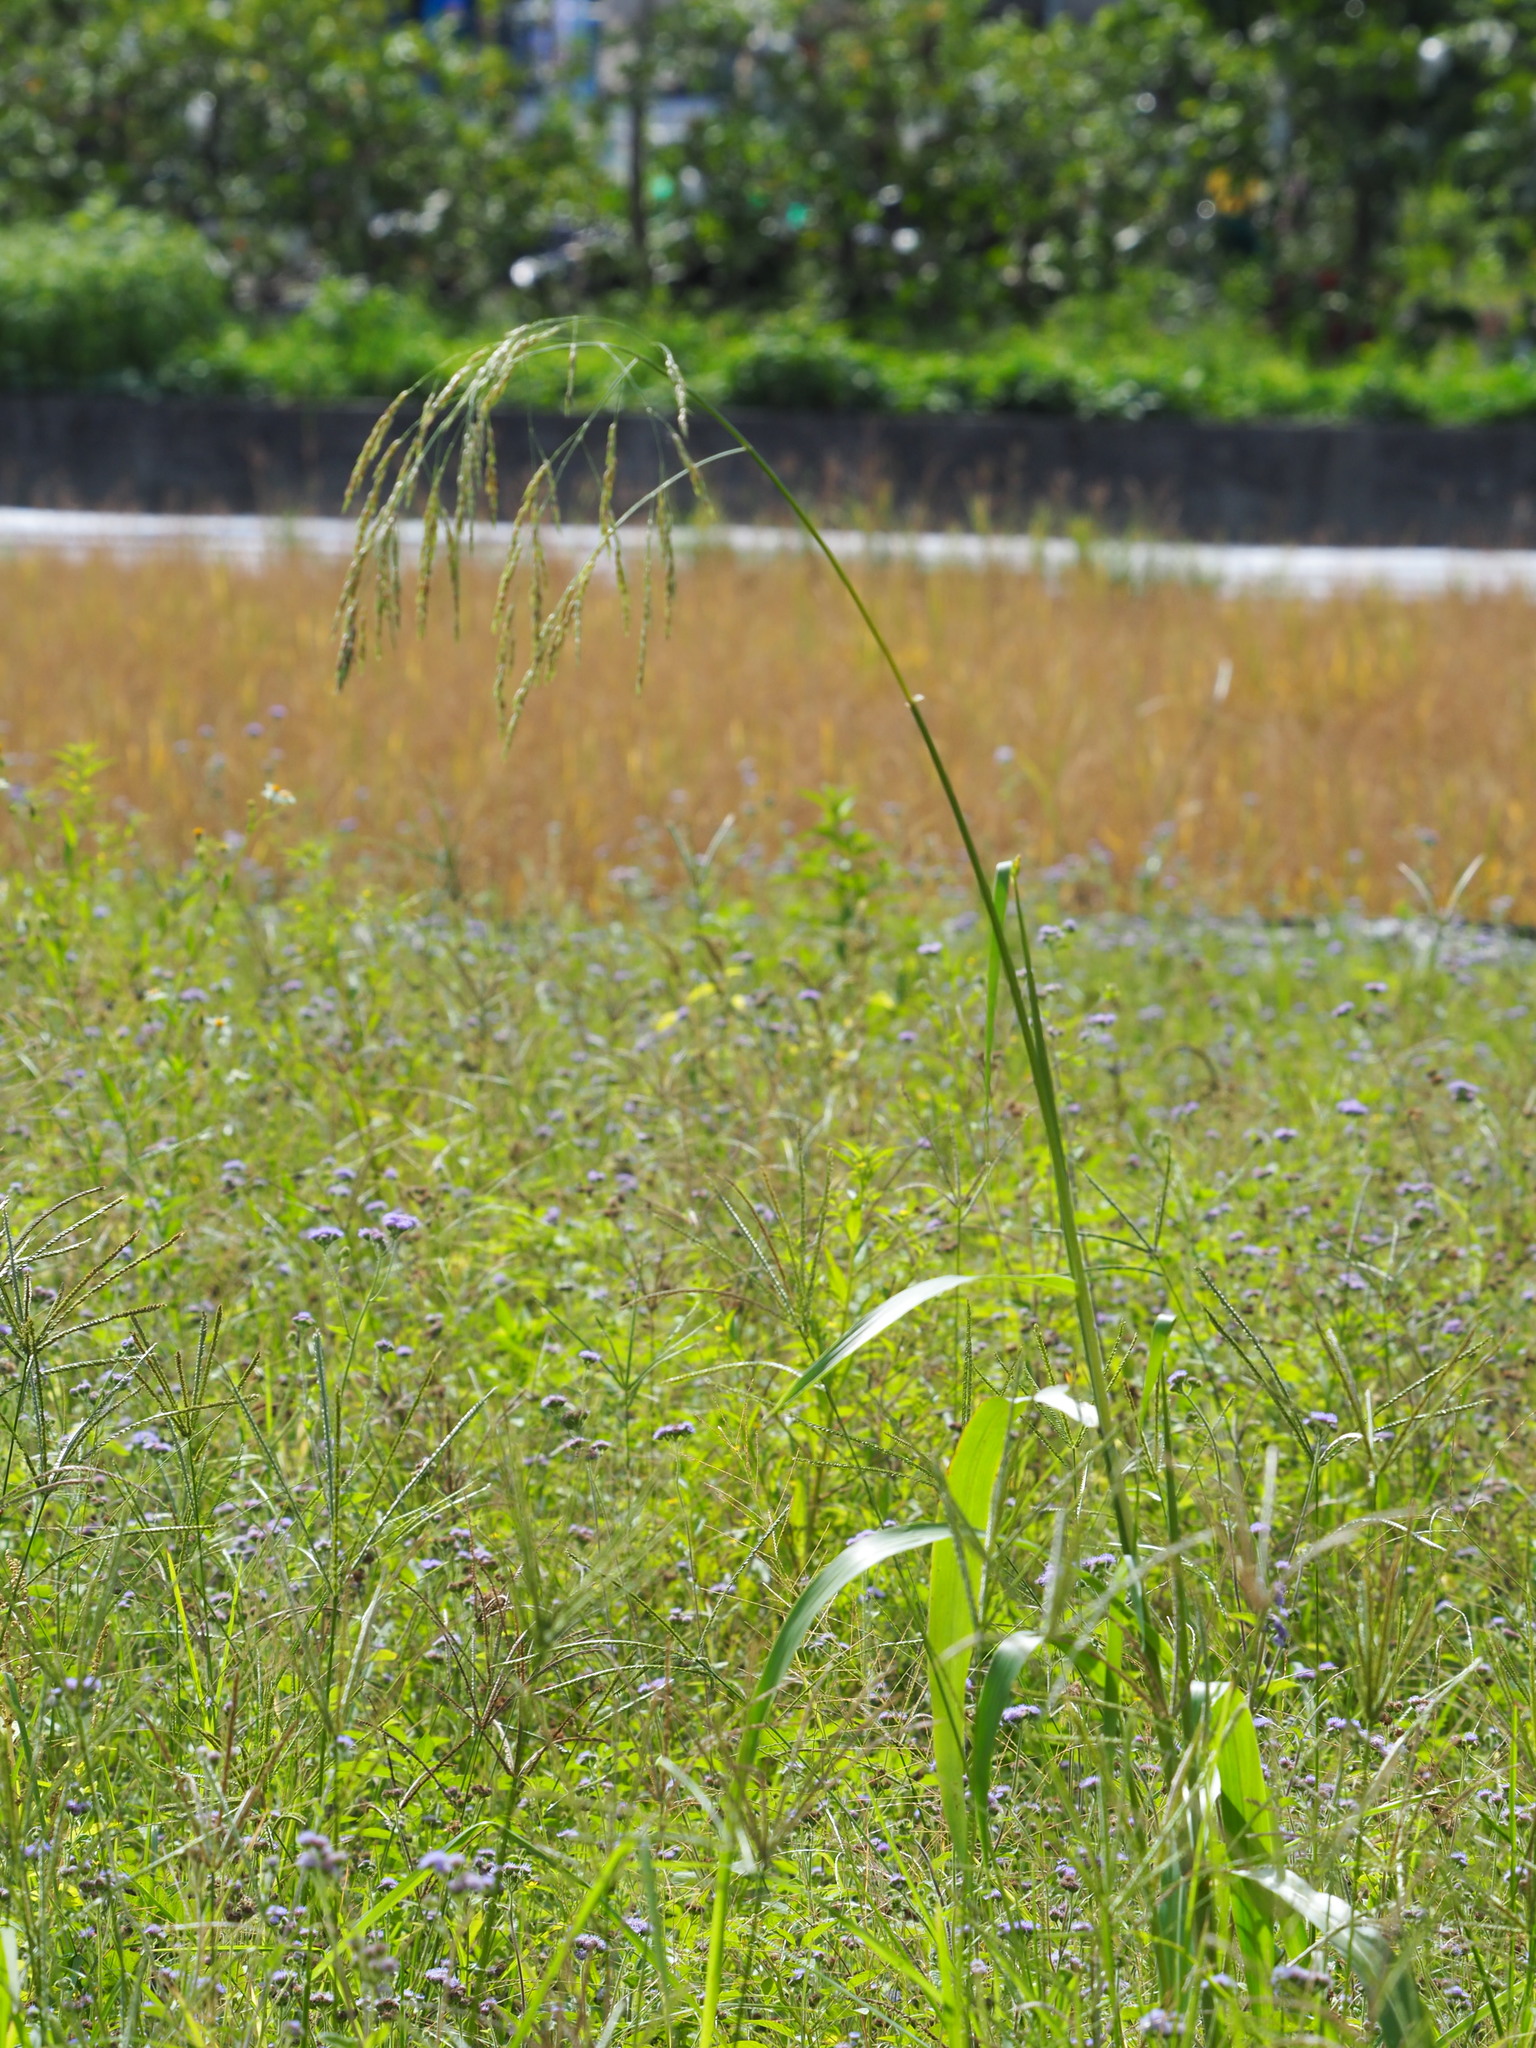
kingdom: Plantae
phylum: Tracheophyta
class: Liliopsida
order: Poales
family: Poaceae
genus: Sorghum
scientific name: Sorghum arundinaceum
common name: Sorghum
